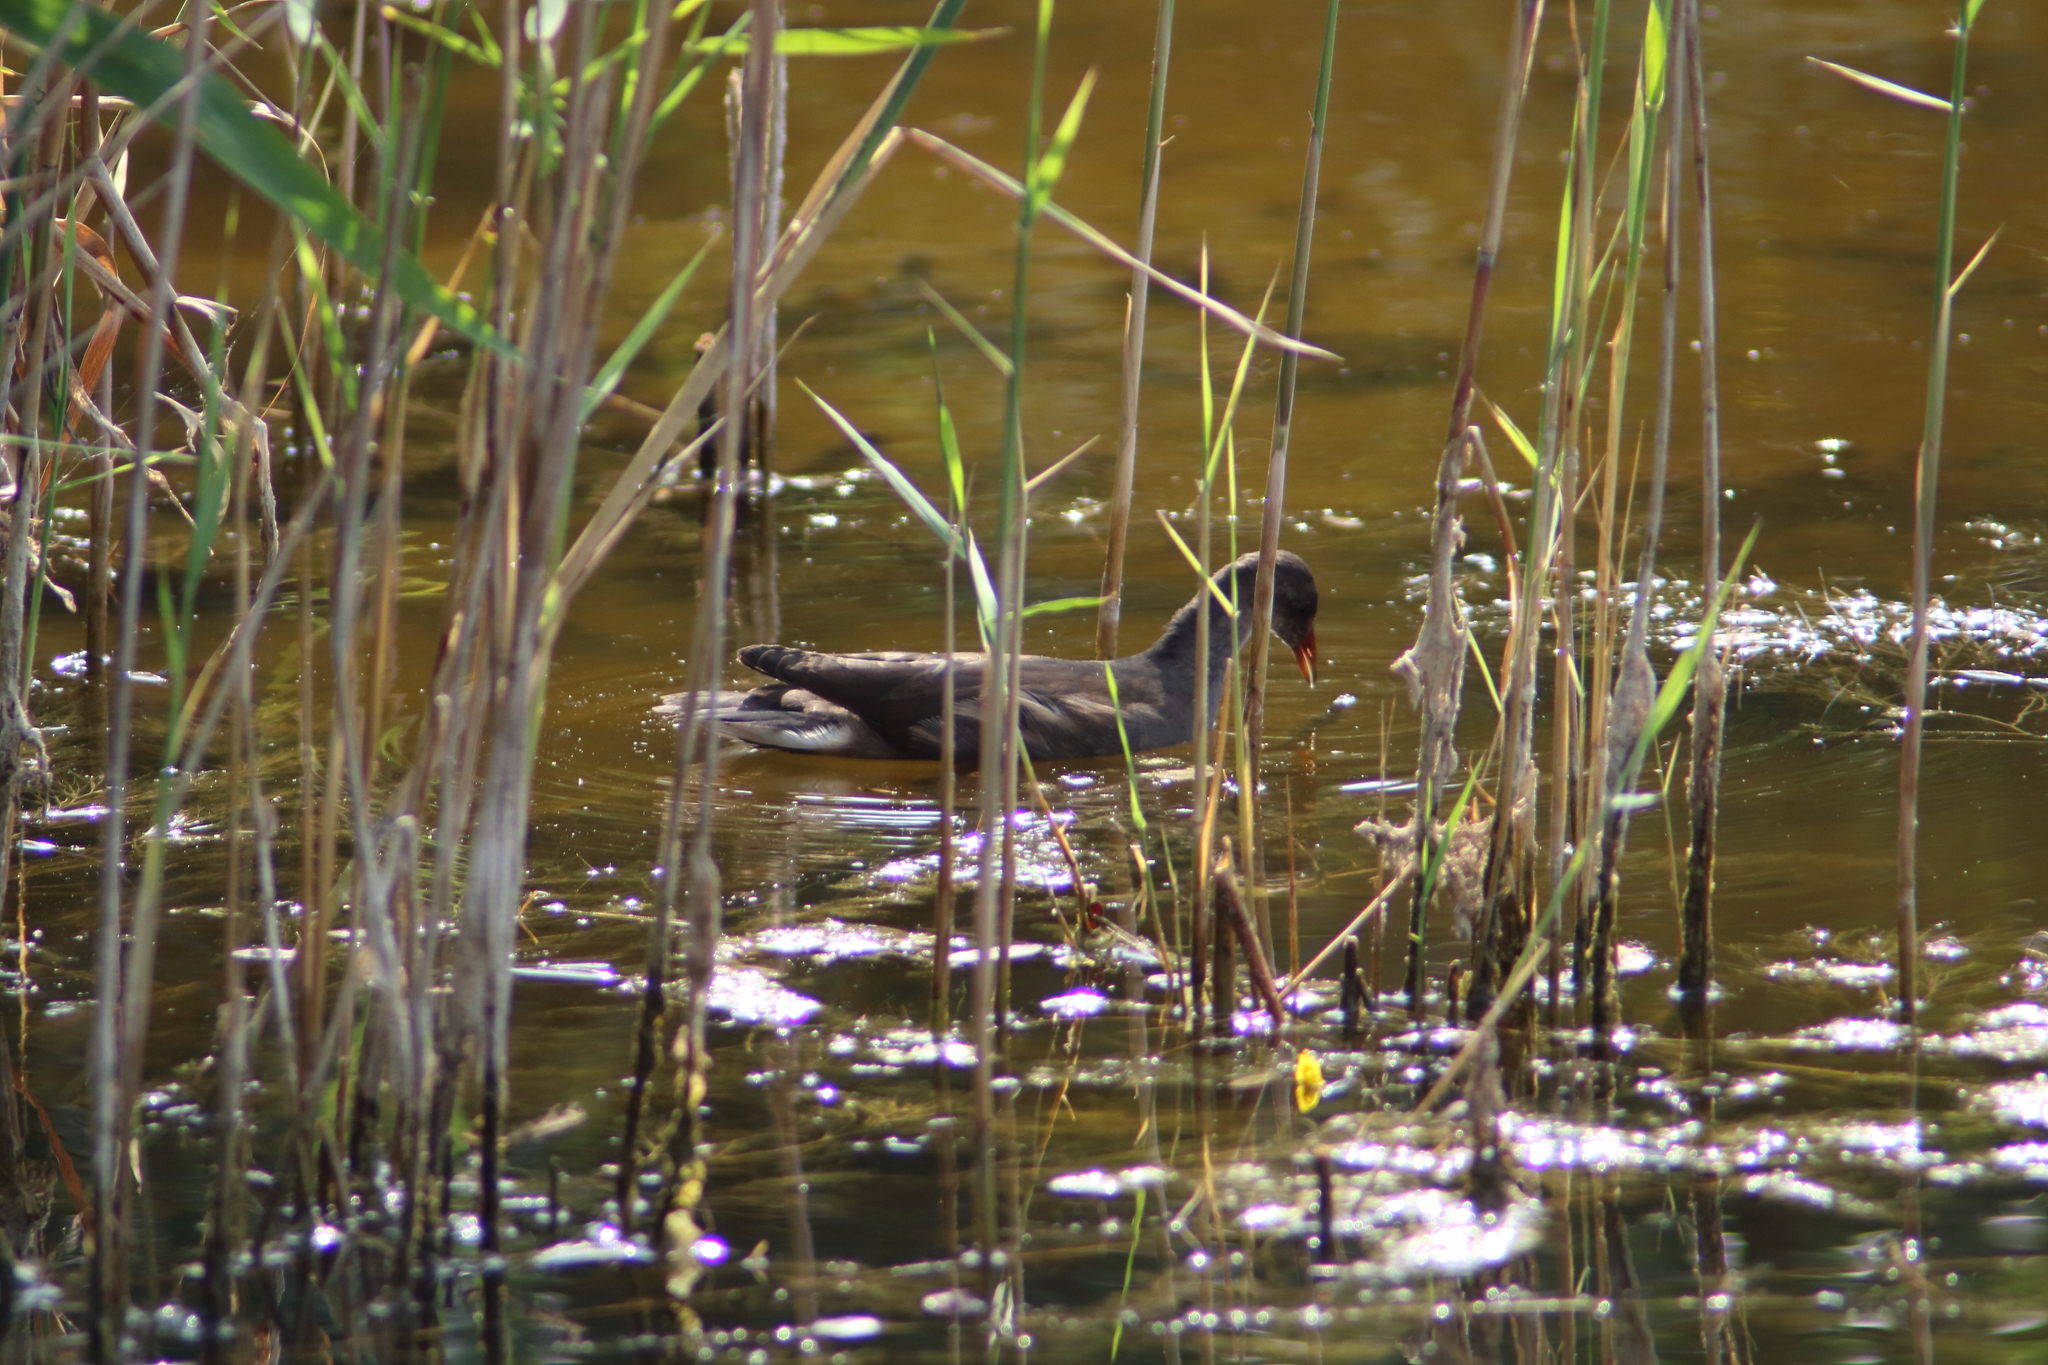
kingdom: Animalia
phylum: Chordata
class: Aves
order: Gruiformes
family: Rallidae
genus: Gallinula
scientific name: Gallinula chloropus
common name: Common moorhen
